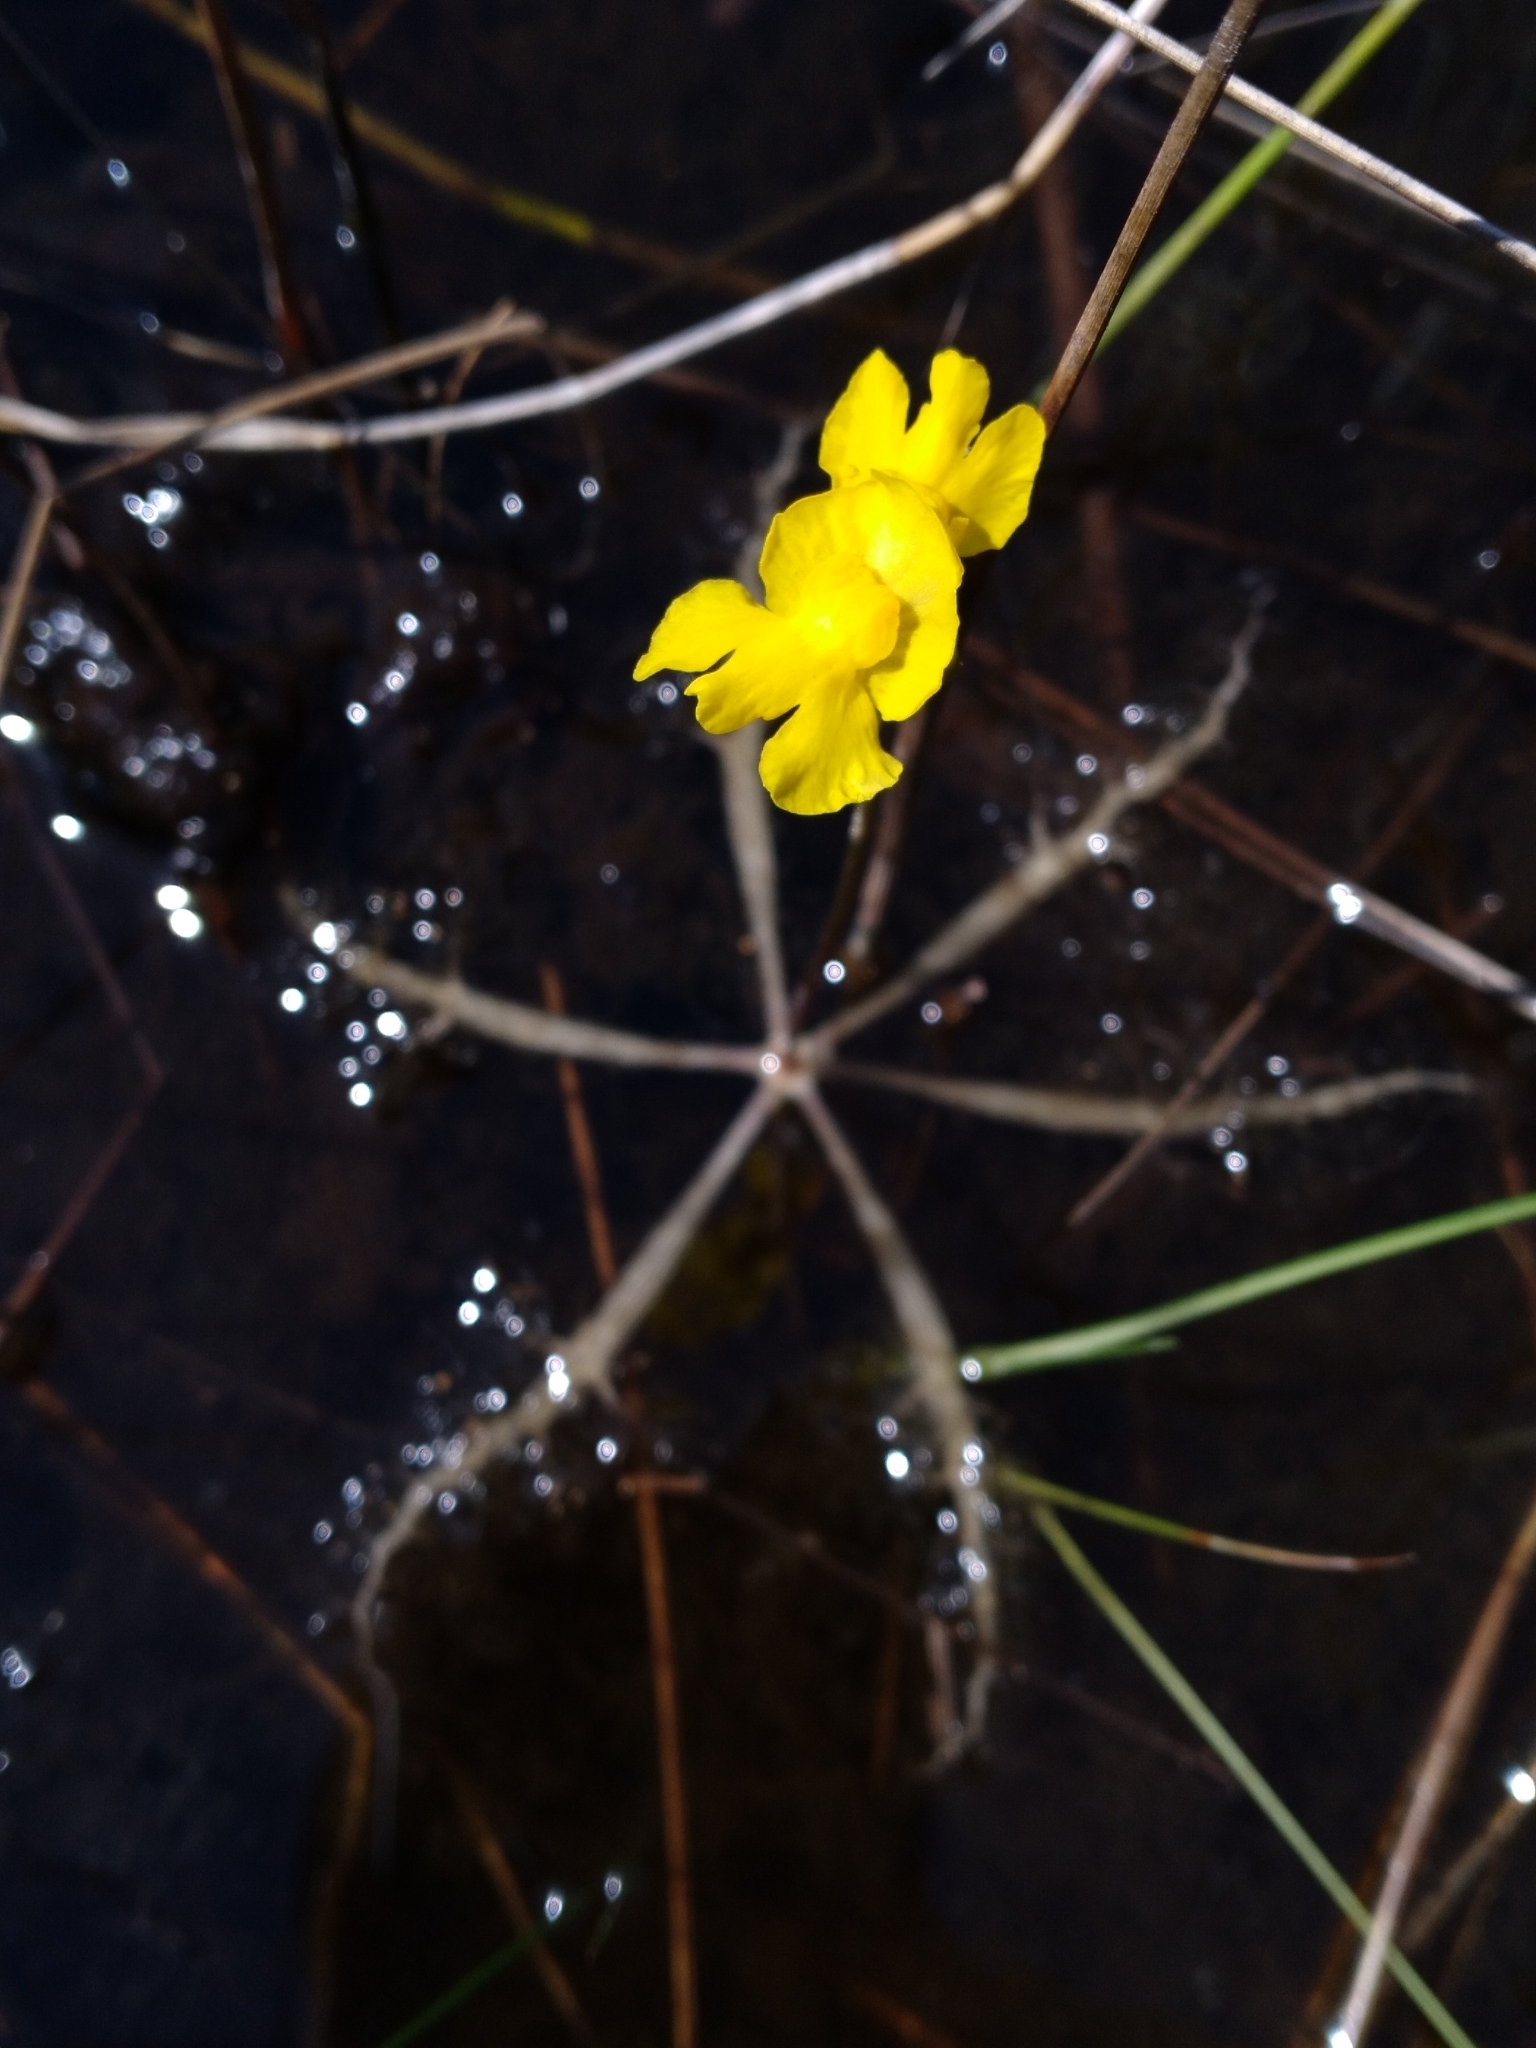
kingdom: Plantae
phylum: Tracheophyta
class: Magnoliopsida
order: Lamiales
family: Lentibulariaceae
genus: Utricularia
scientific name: Utricularia inflata
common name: Floating bladderwort
